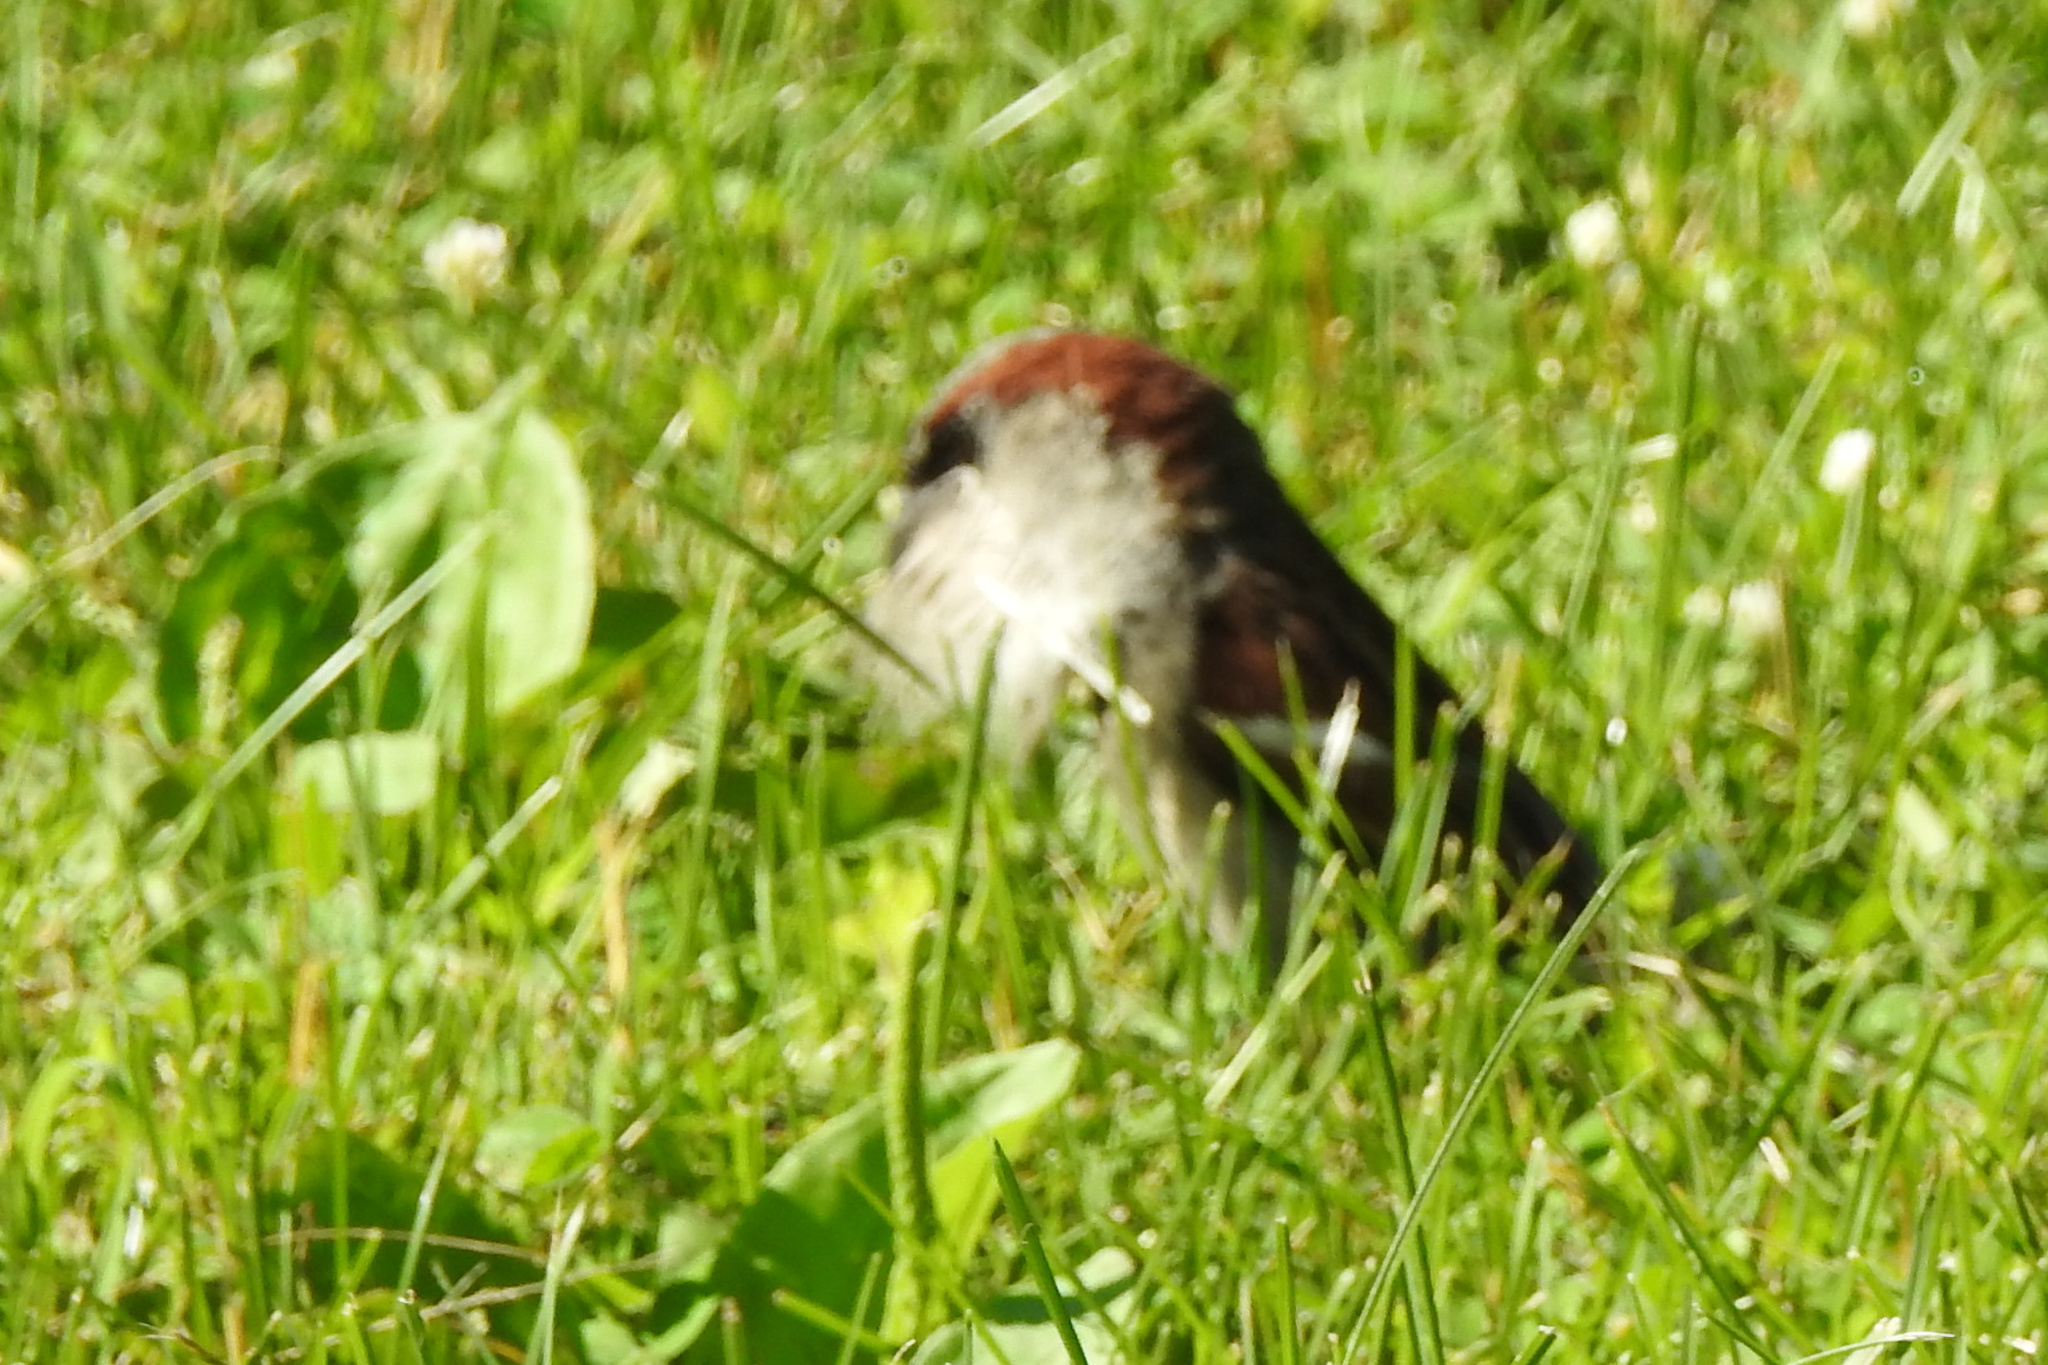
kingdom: Animalia
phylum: Chordata
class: Aves
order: Passeriformes
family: Passeridae
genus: Passer
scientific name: Passer domesticus
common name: House sparrow
